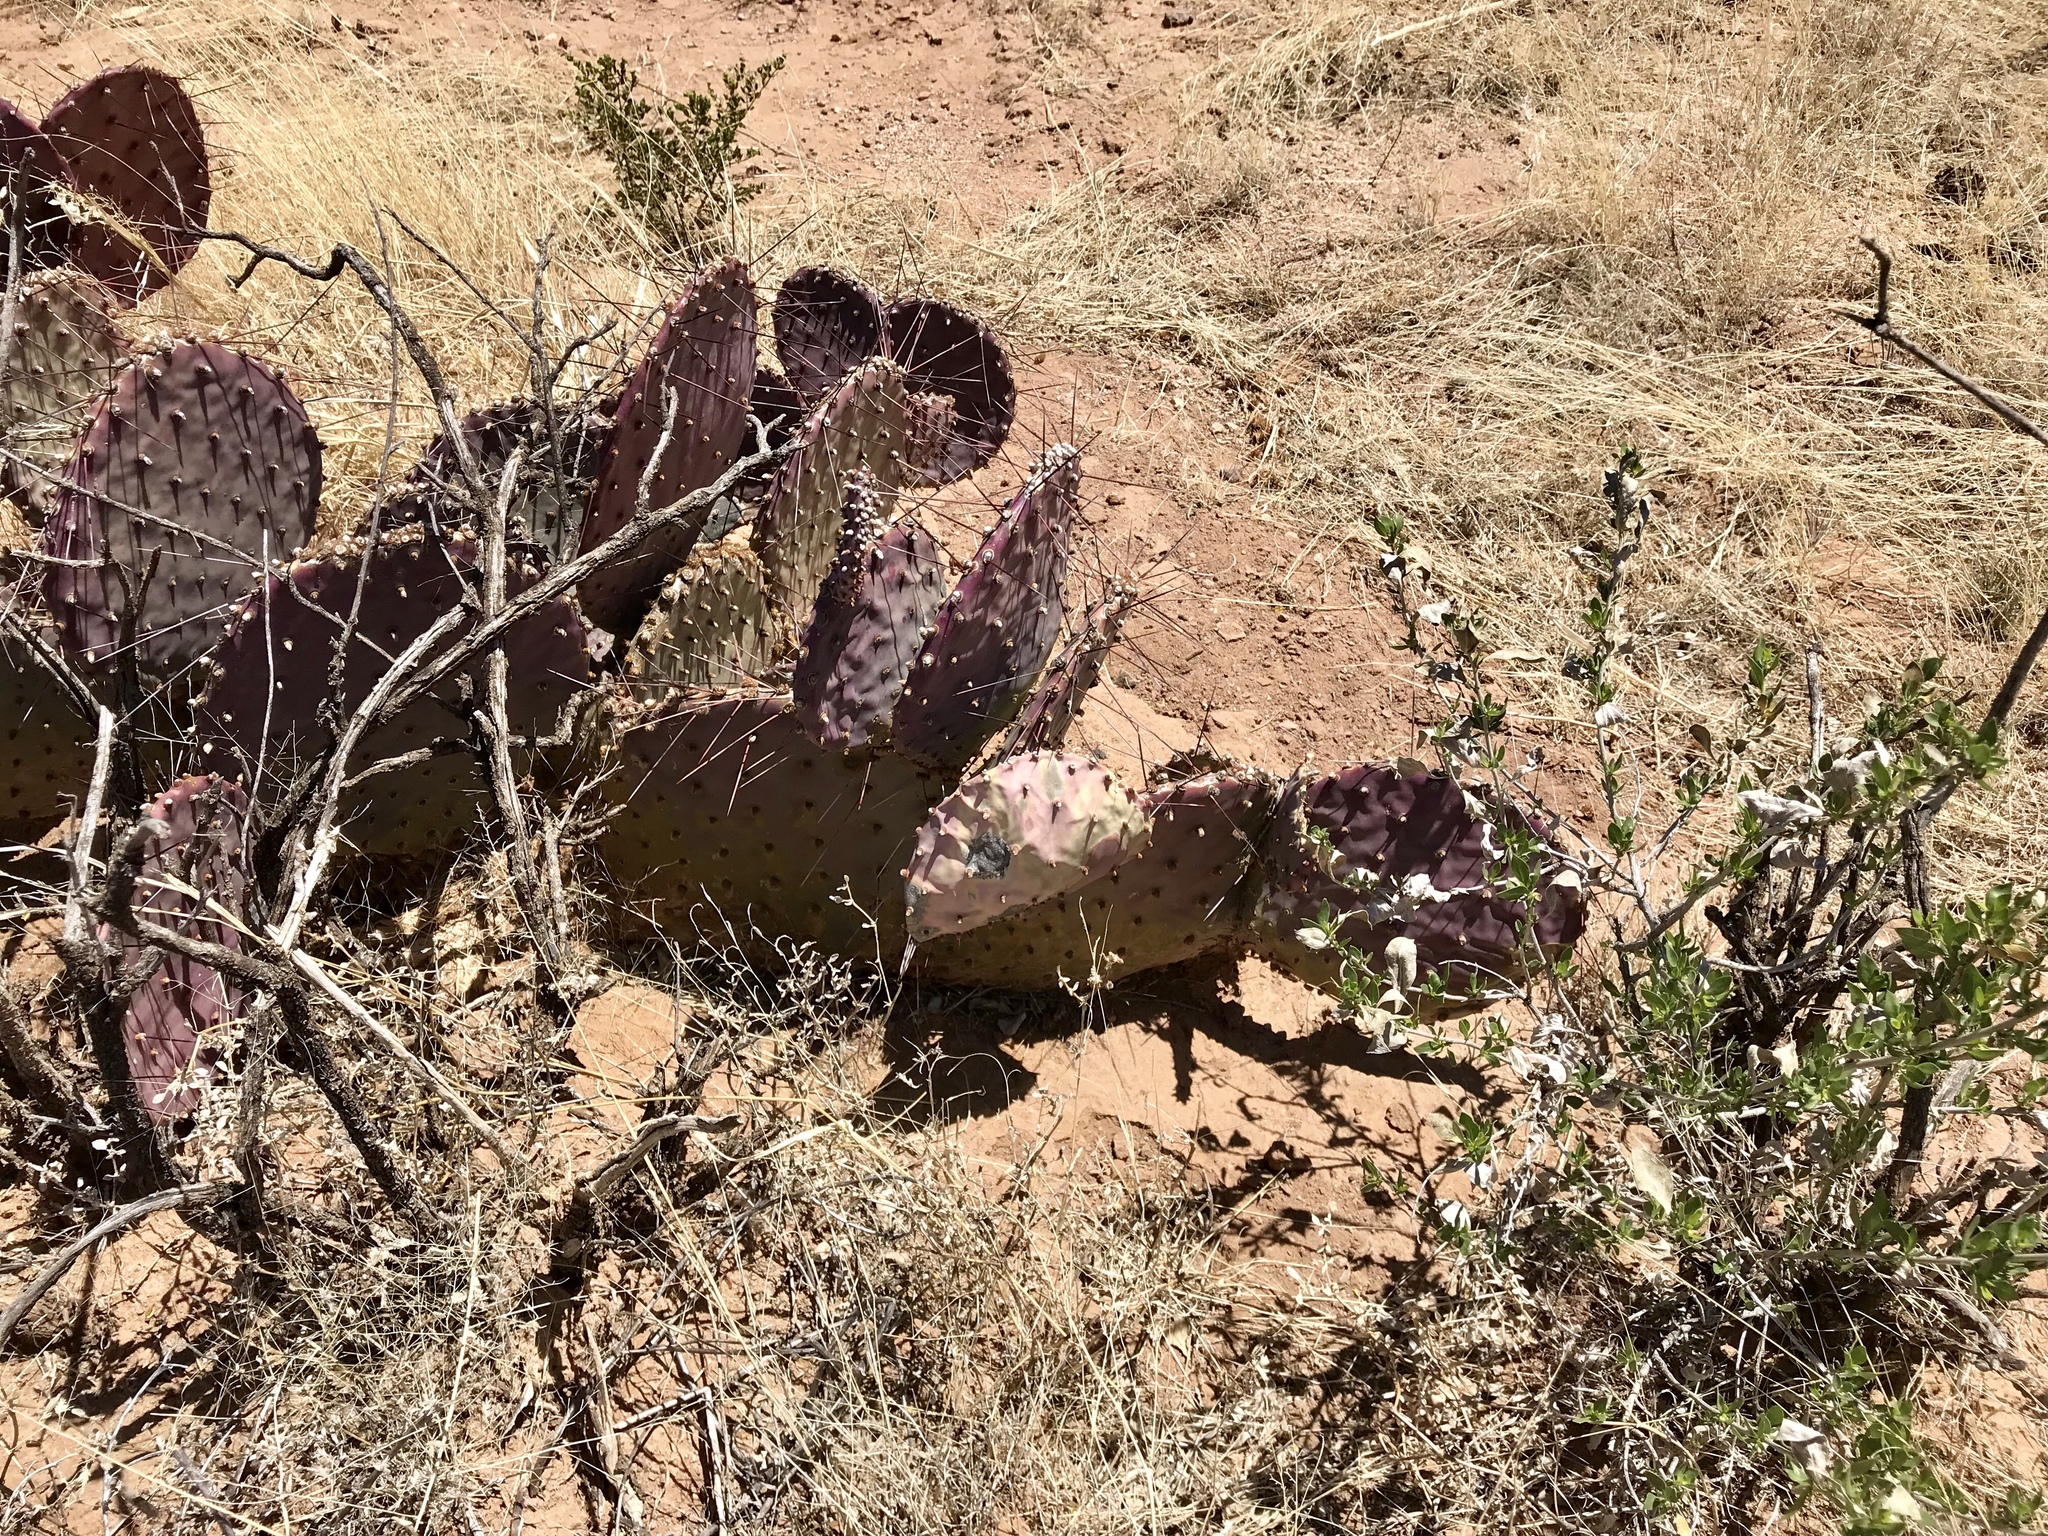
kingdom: Plantae
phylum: Tracheophyta
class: Magnoliopsida
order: Caryophyllales
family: Cactaceae
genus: Opuntia
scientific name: Opuntia macrocentra
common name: Purple prickly-pear
